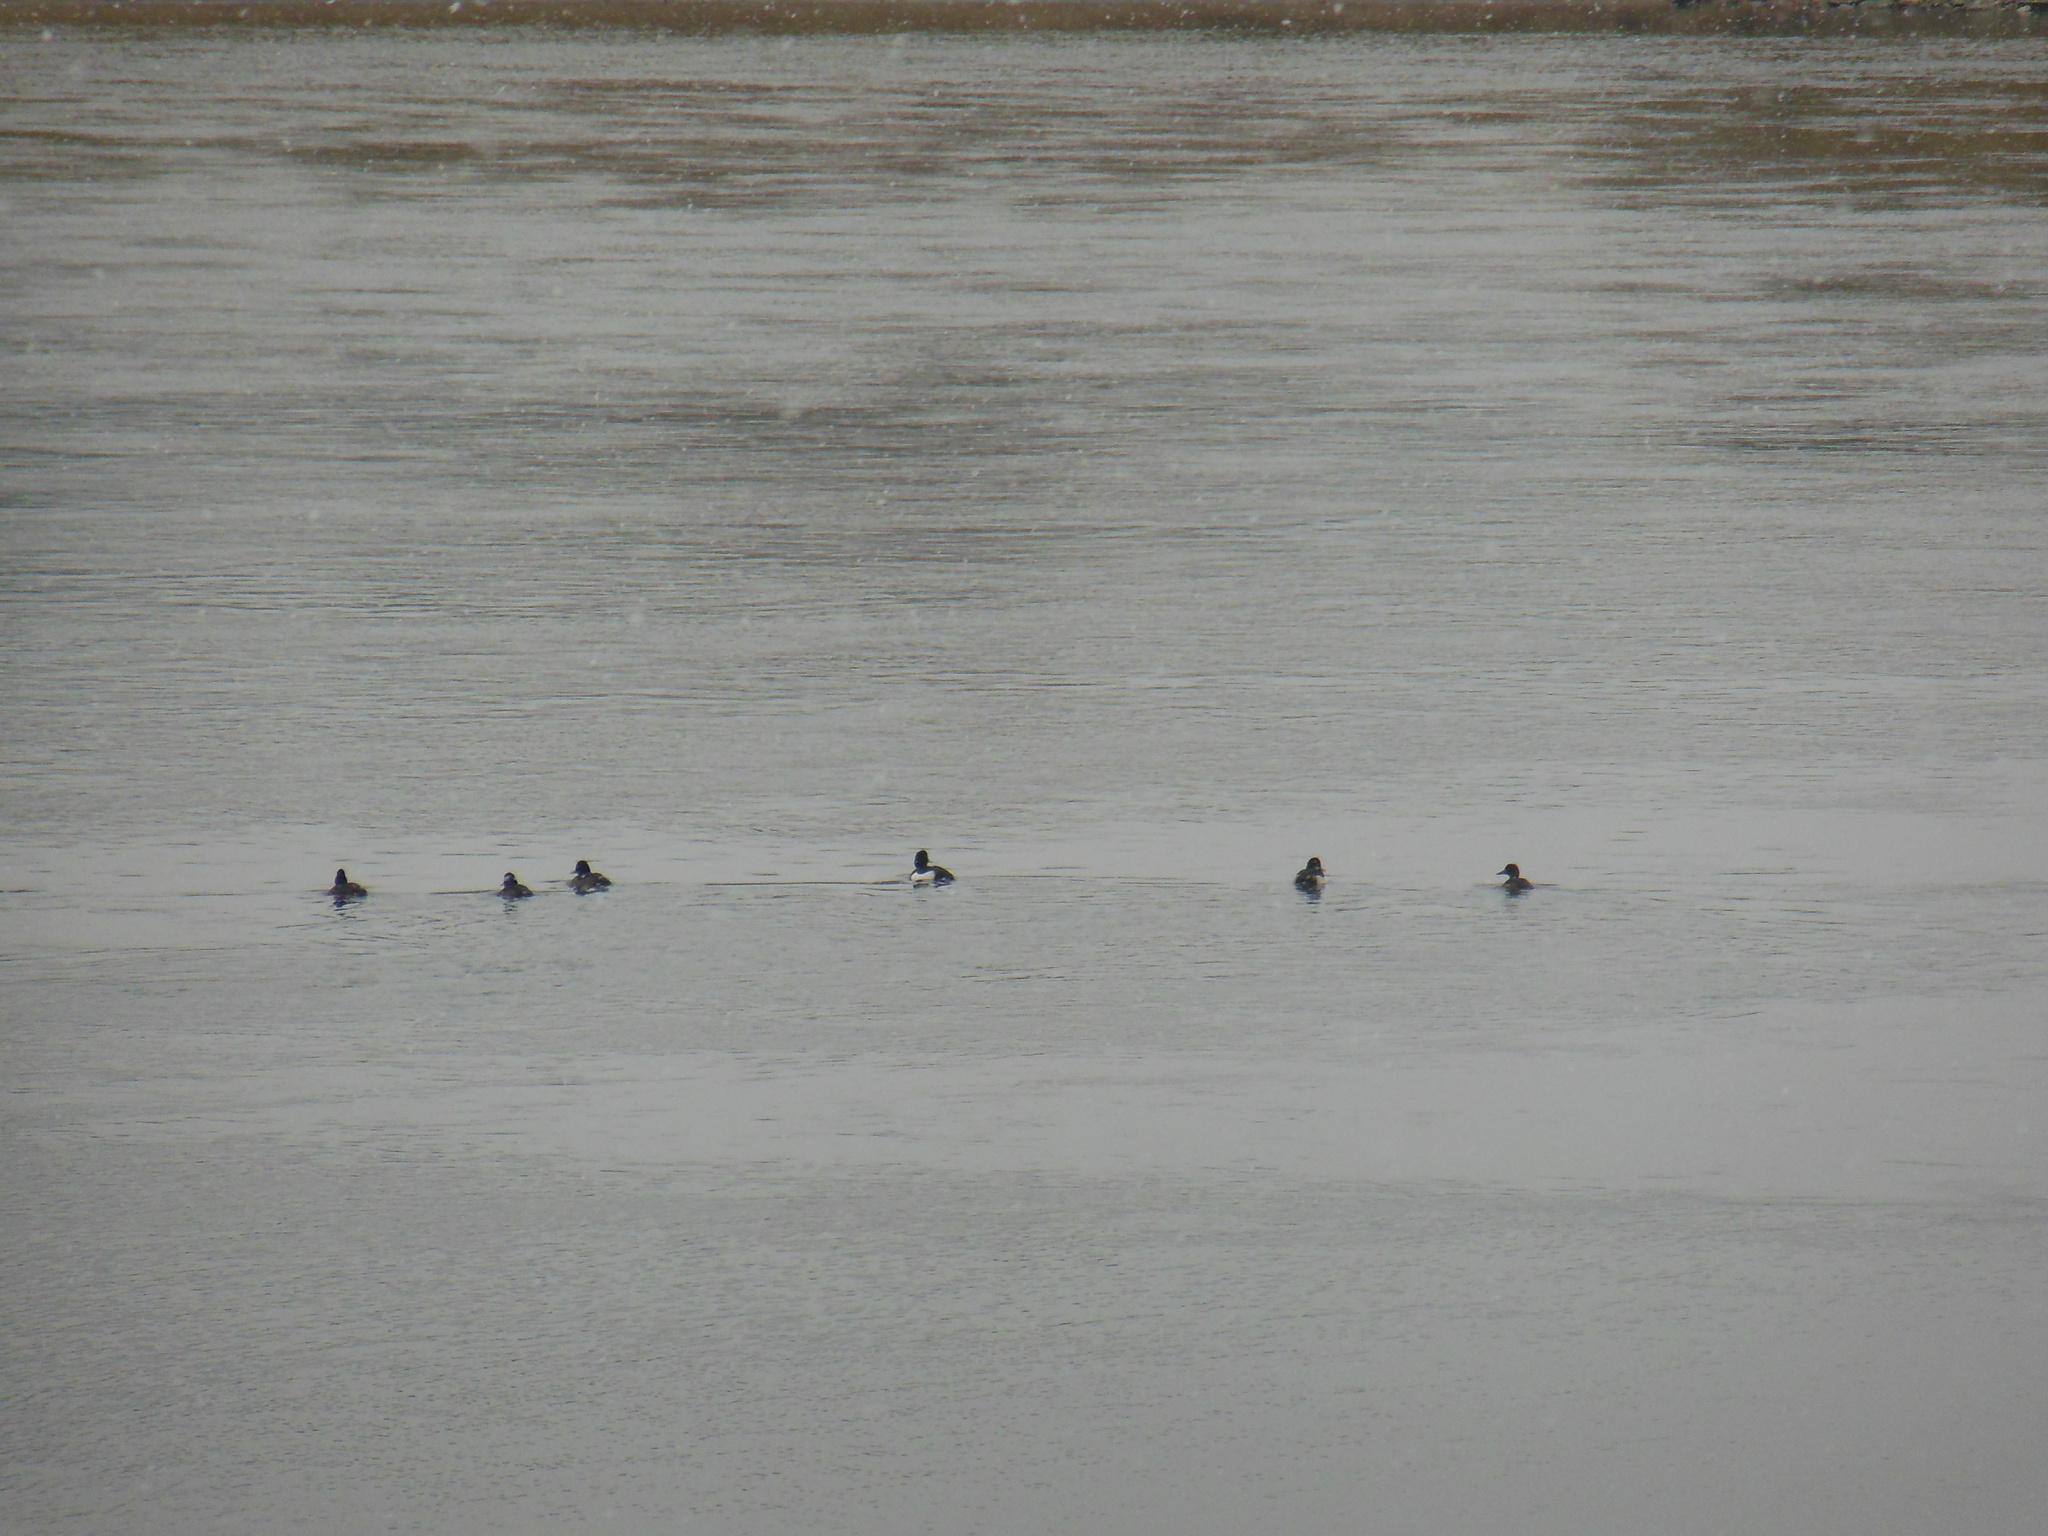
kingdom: Animalia
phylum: Chordata
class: Aves
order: Anseriformes
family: Anatidae
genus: Aythya
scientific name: Aythya fuligula
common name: Tufted duck
